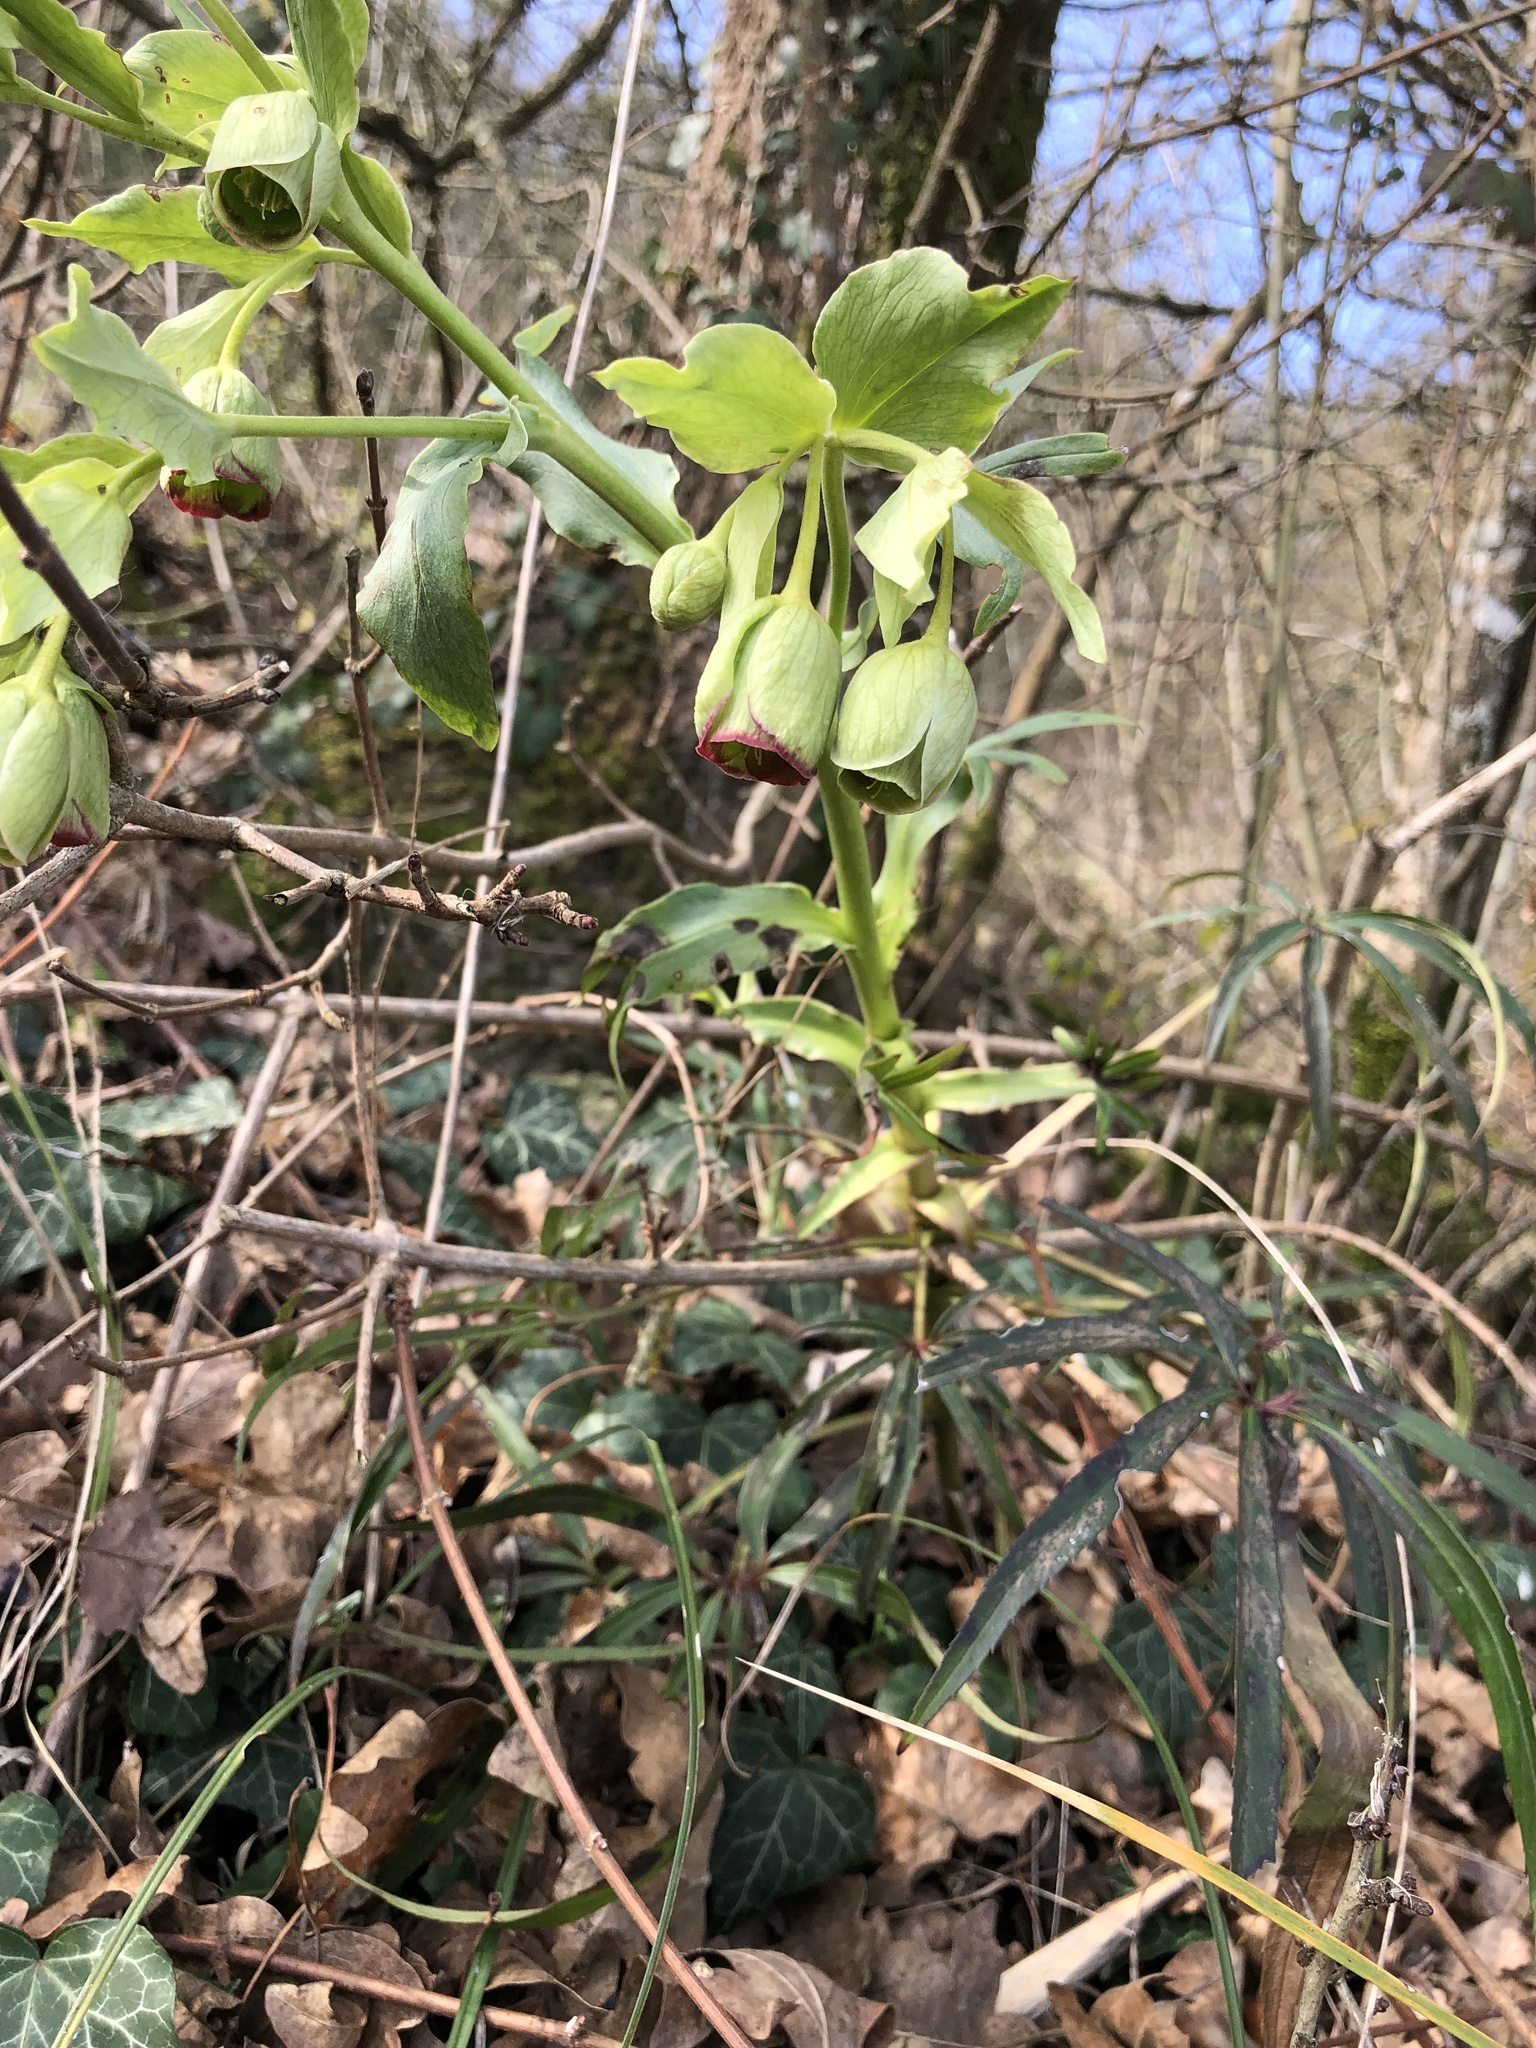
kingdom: Plantae
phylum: Tracheophyta
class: Magnoliopsida
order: Ranunculales
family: Ranunculaceae
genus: Helleborus
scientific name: Helleborus foetidus
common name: Stinking hellebore
